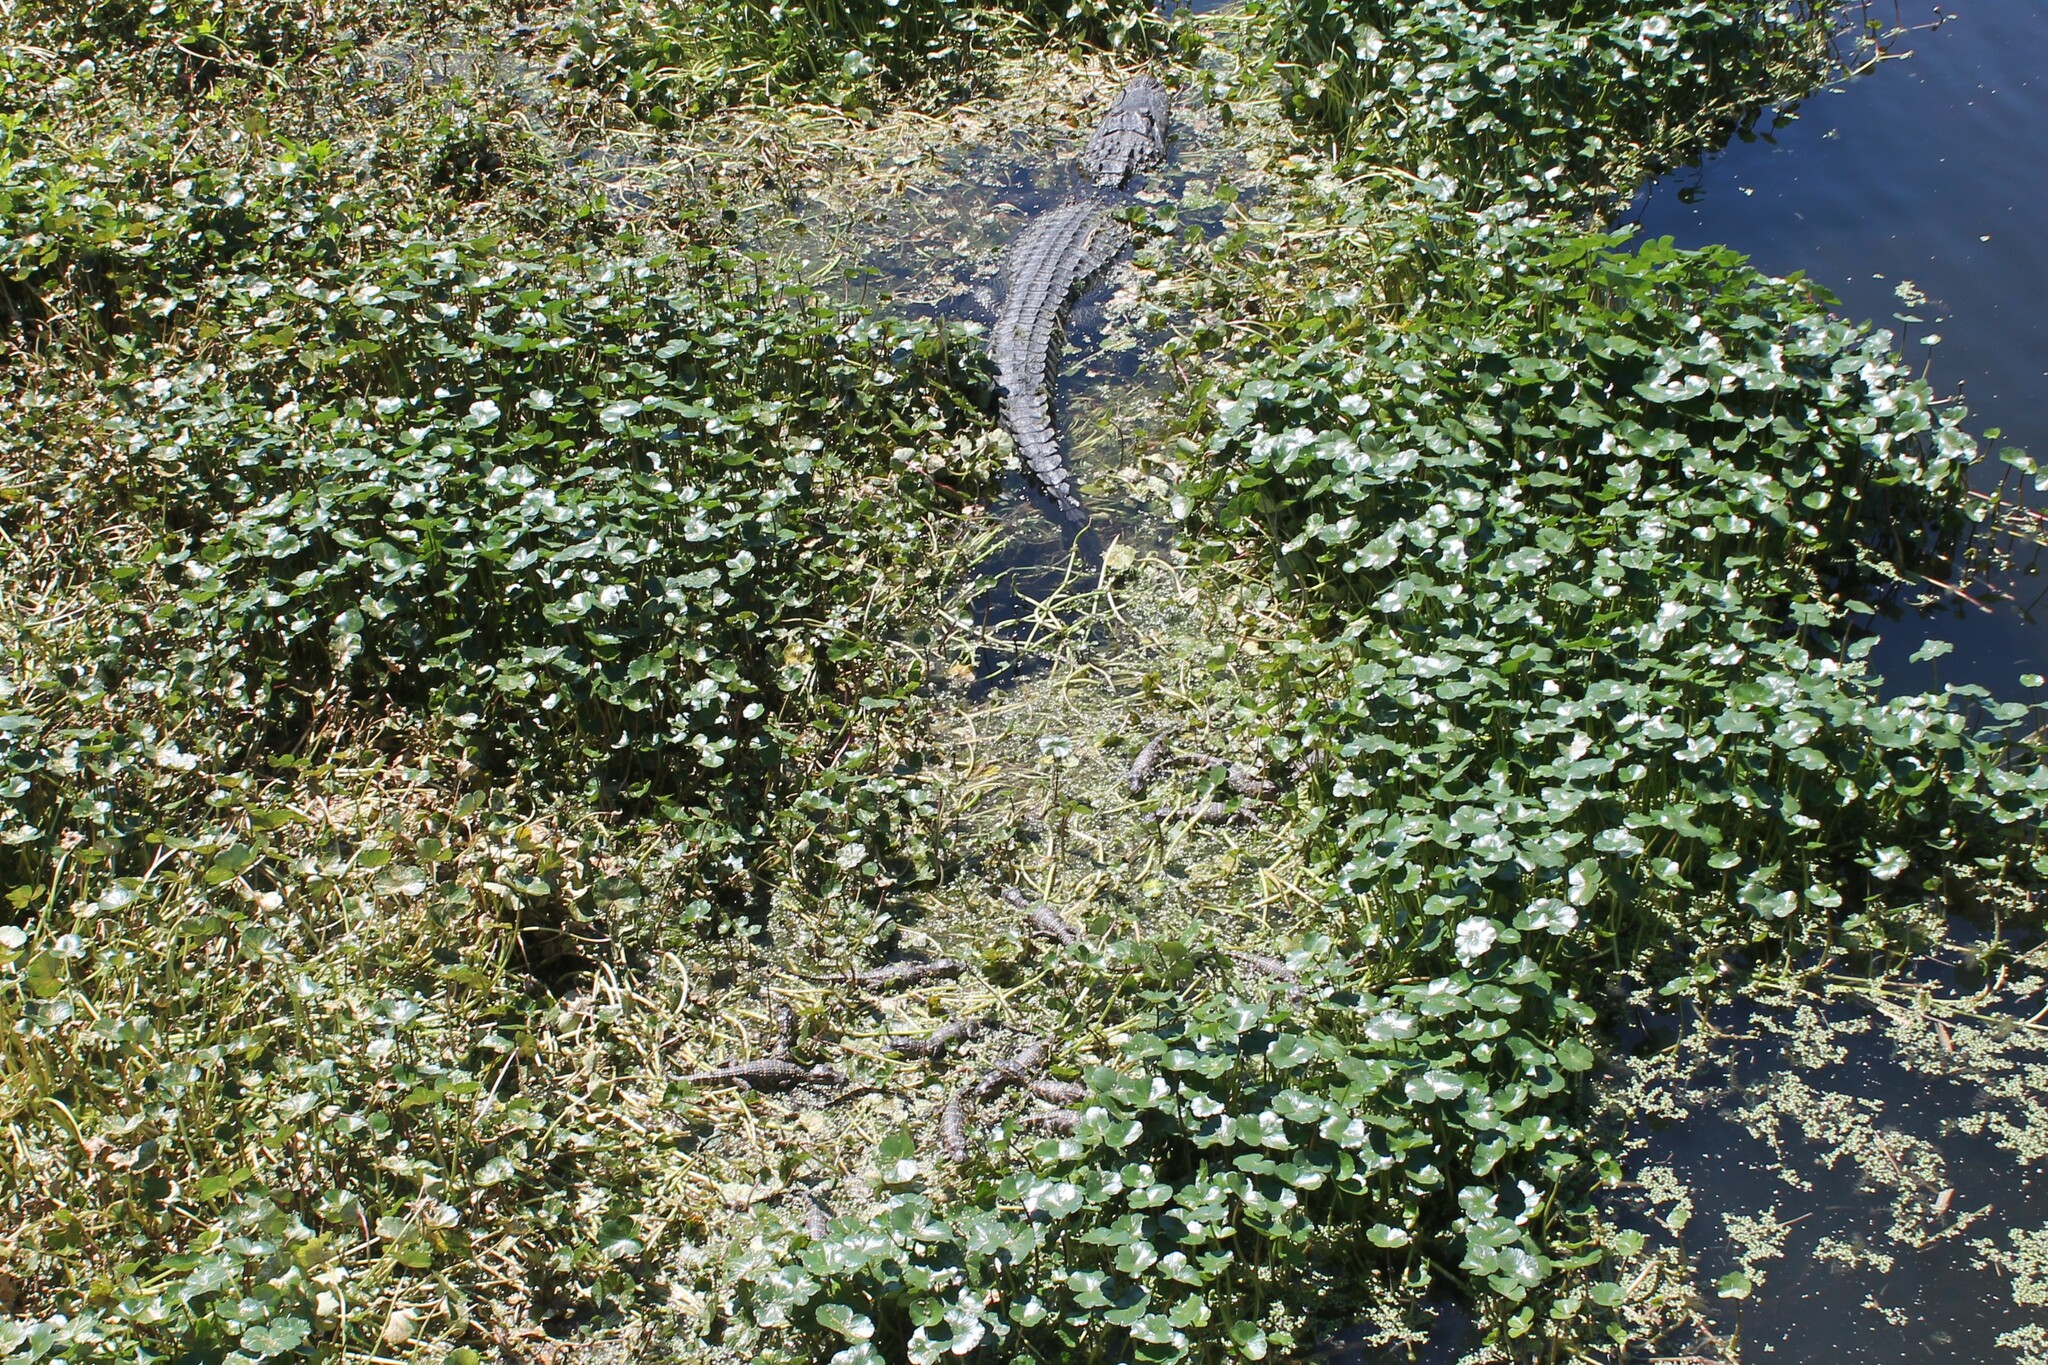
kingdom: Animalia
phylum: Chordata
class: Crocodylia
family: Alligatoridae
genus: Alligator
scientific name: Alligator mississippiensis
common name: American alligator
